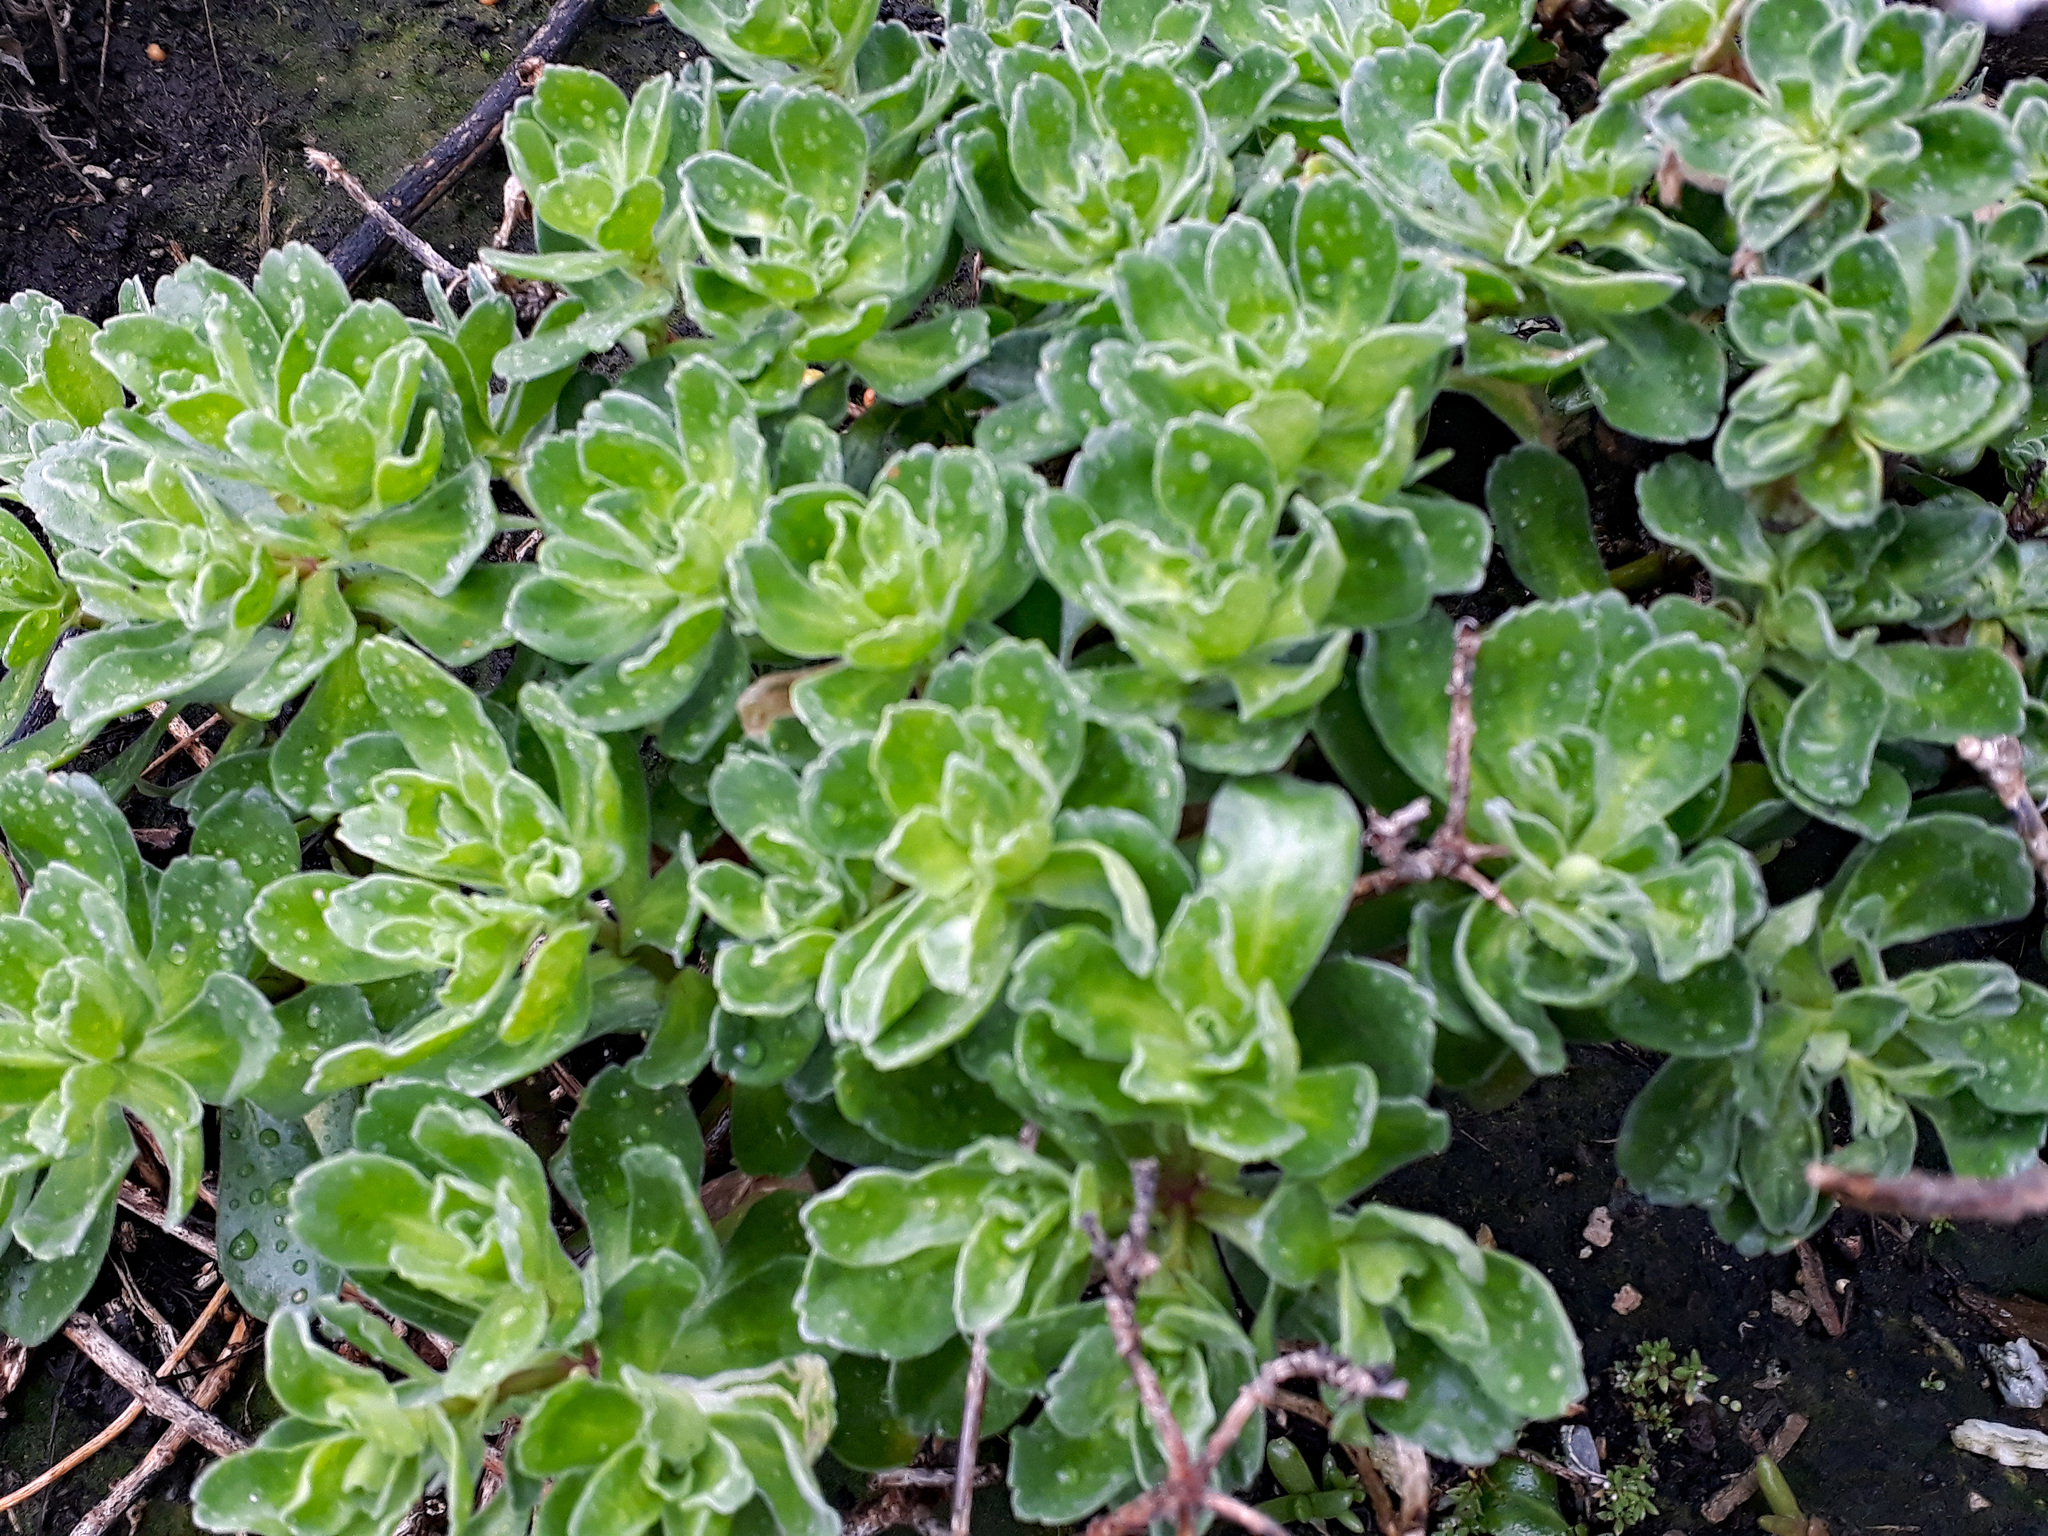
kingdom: Plantae
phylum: Tracheophyta
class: Magnoliopsida
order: Asterales
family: Asteraceae
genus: Leptinella
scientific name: Leptinella featherstonii
